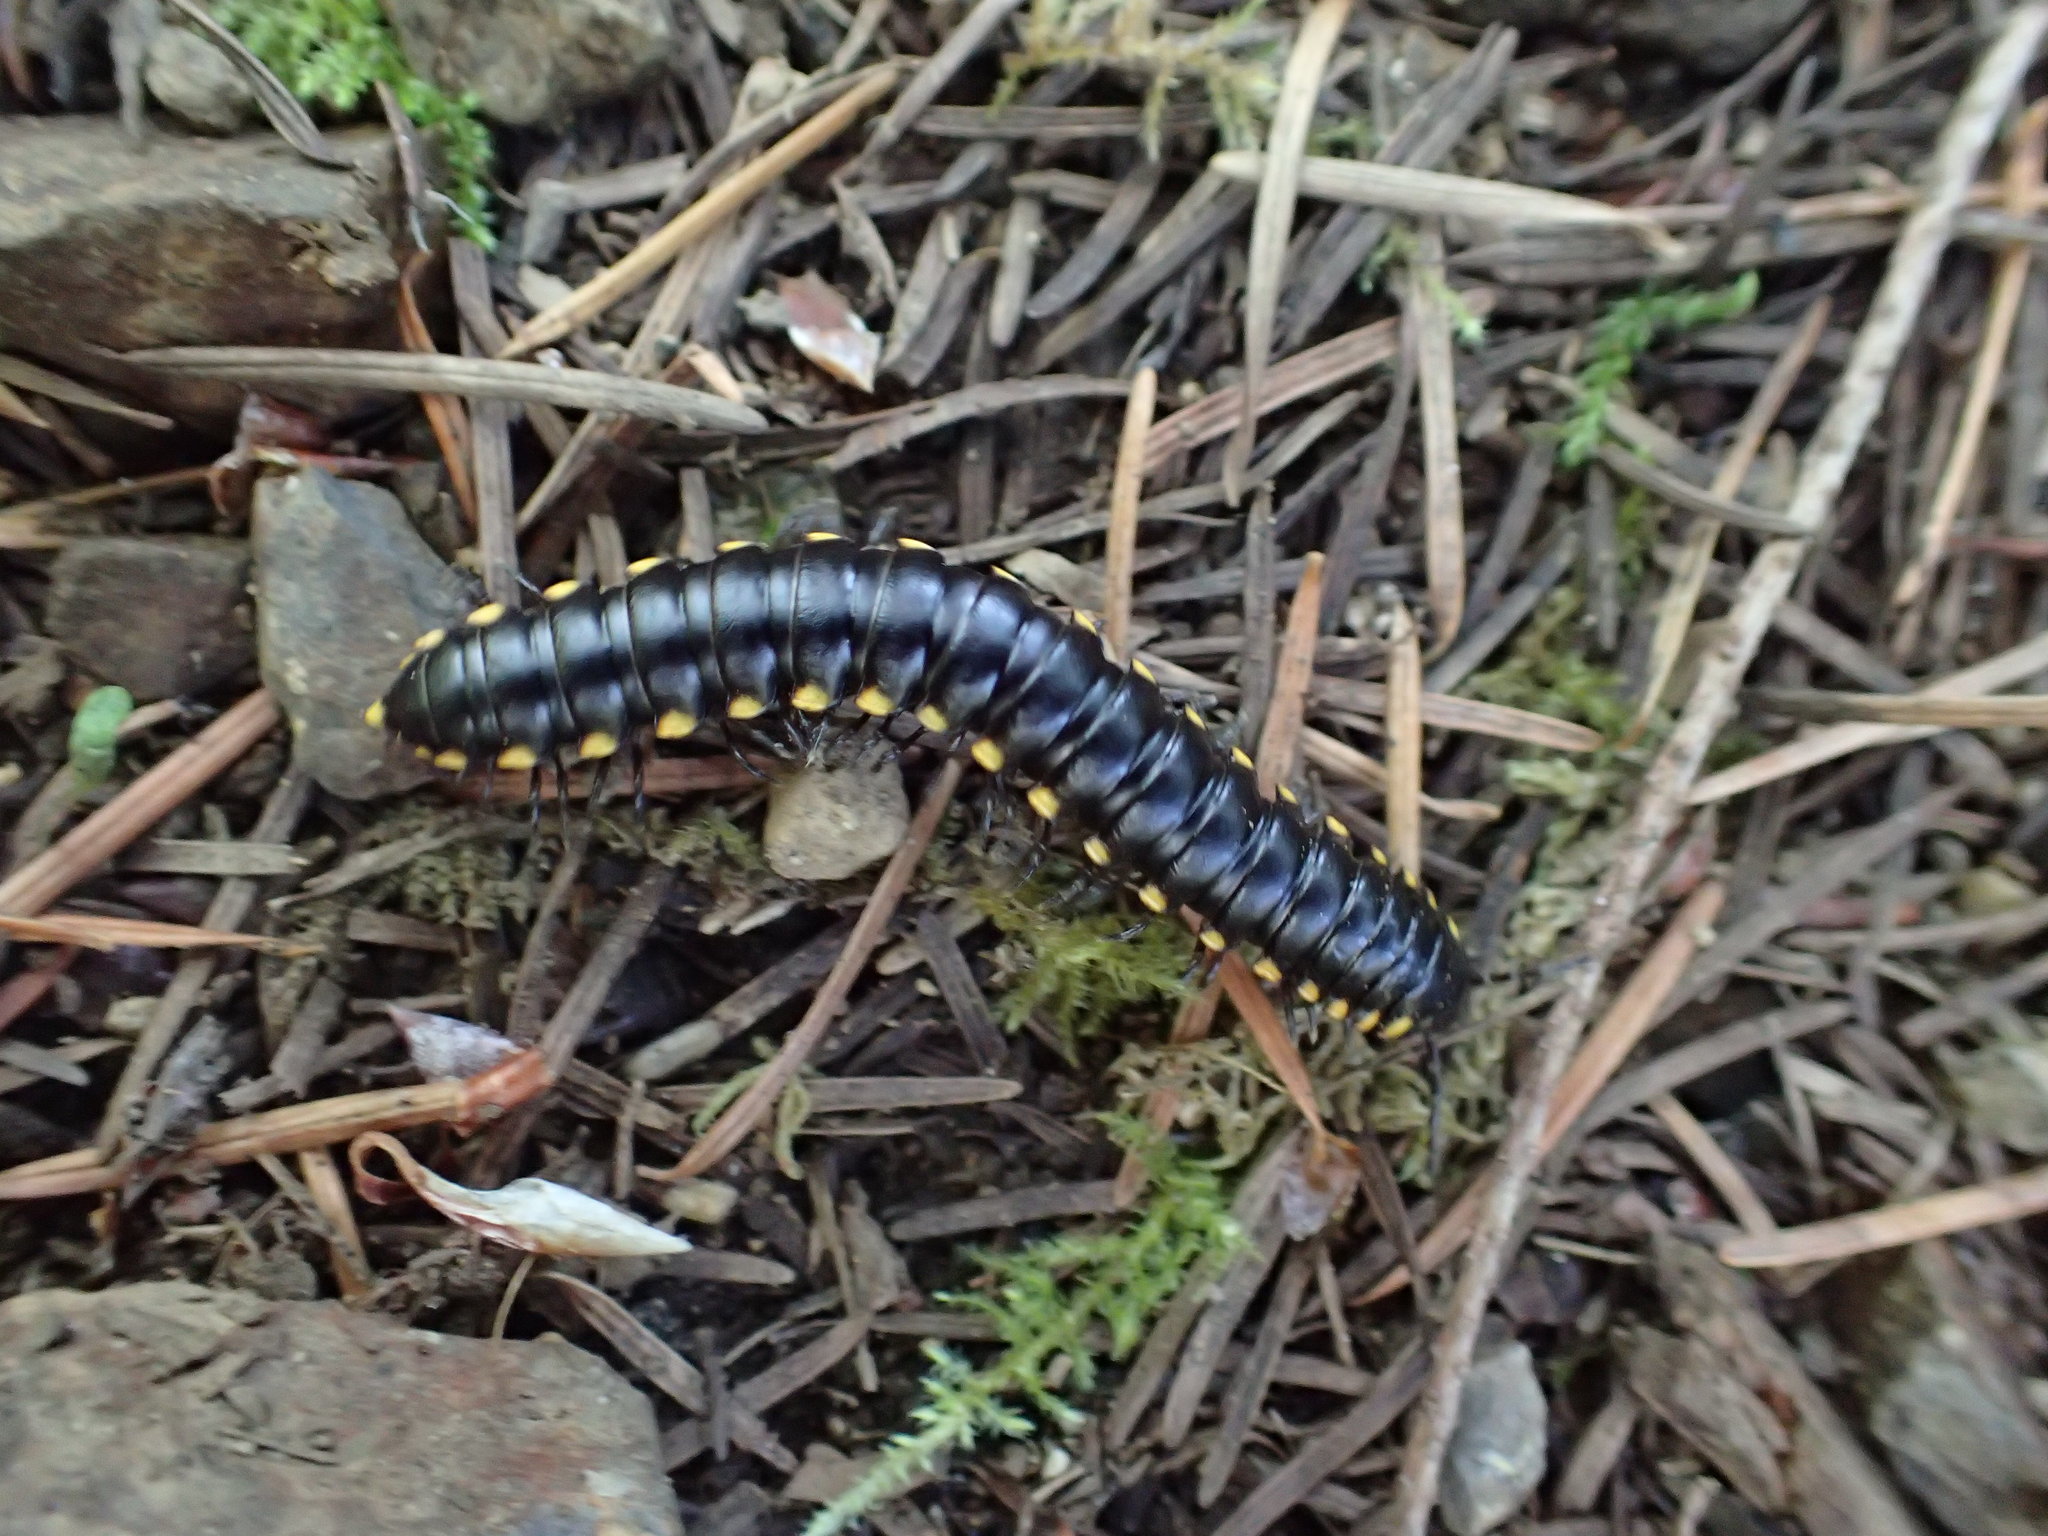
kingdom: Animalia
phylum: Arthropoda
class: Diplopoda
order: Polydesmida
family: Xystodesmidae
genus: Harpaphe
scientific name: Harpaphe haydeniana
